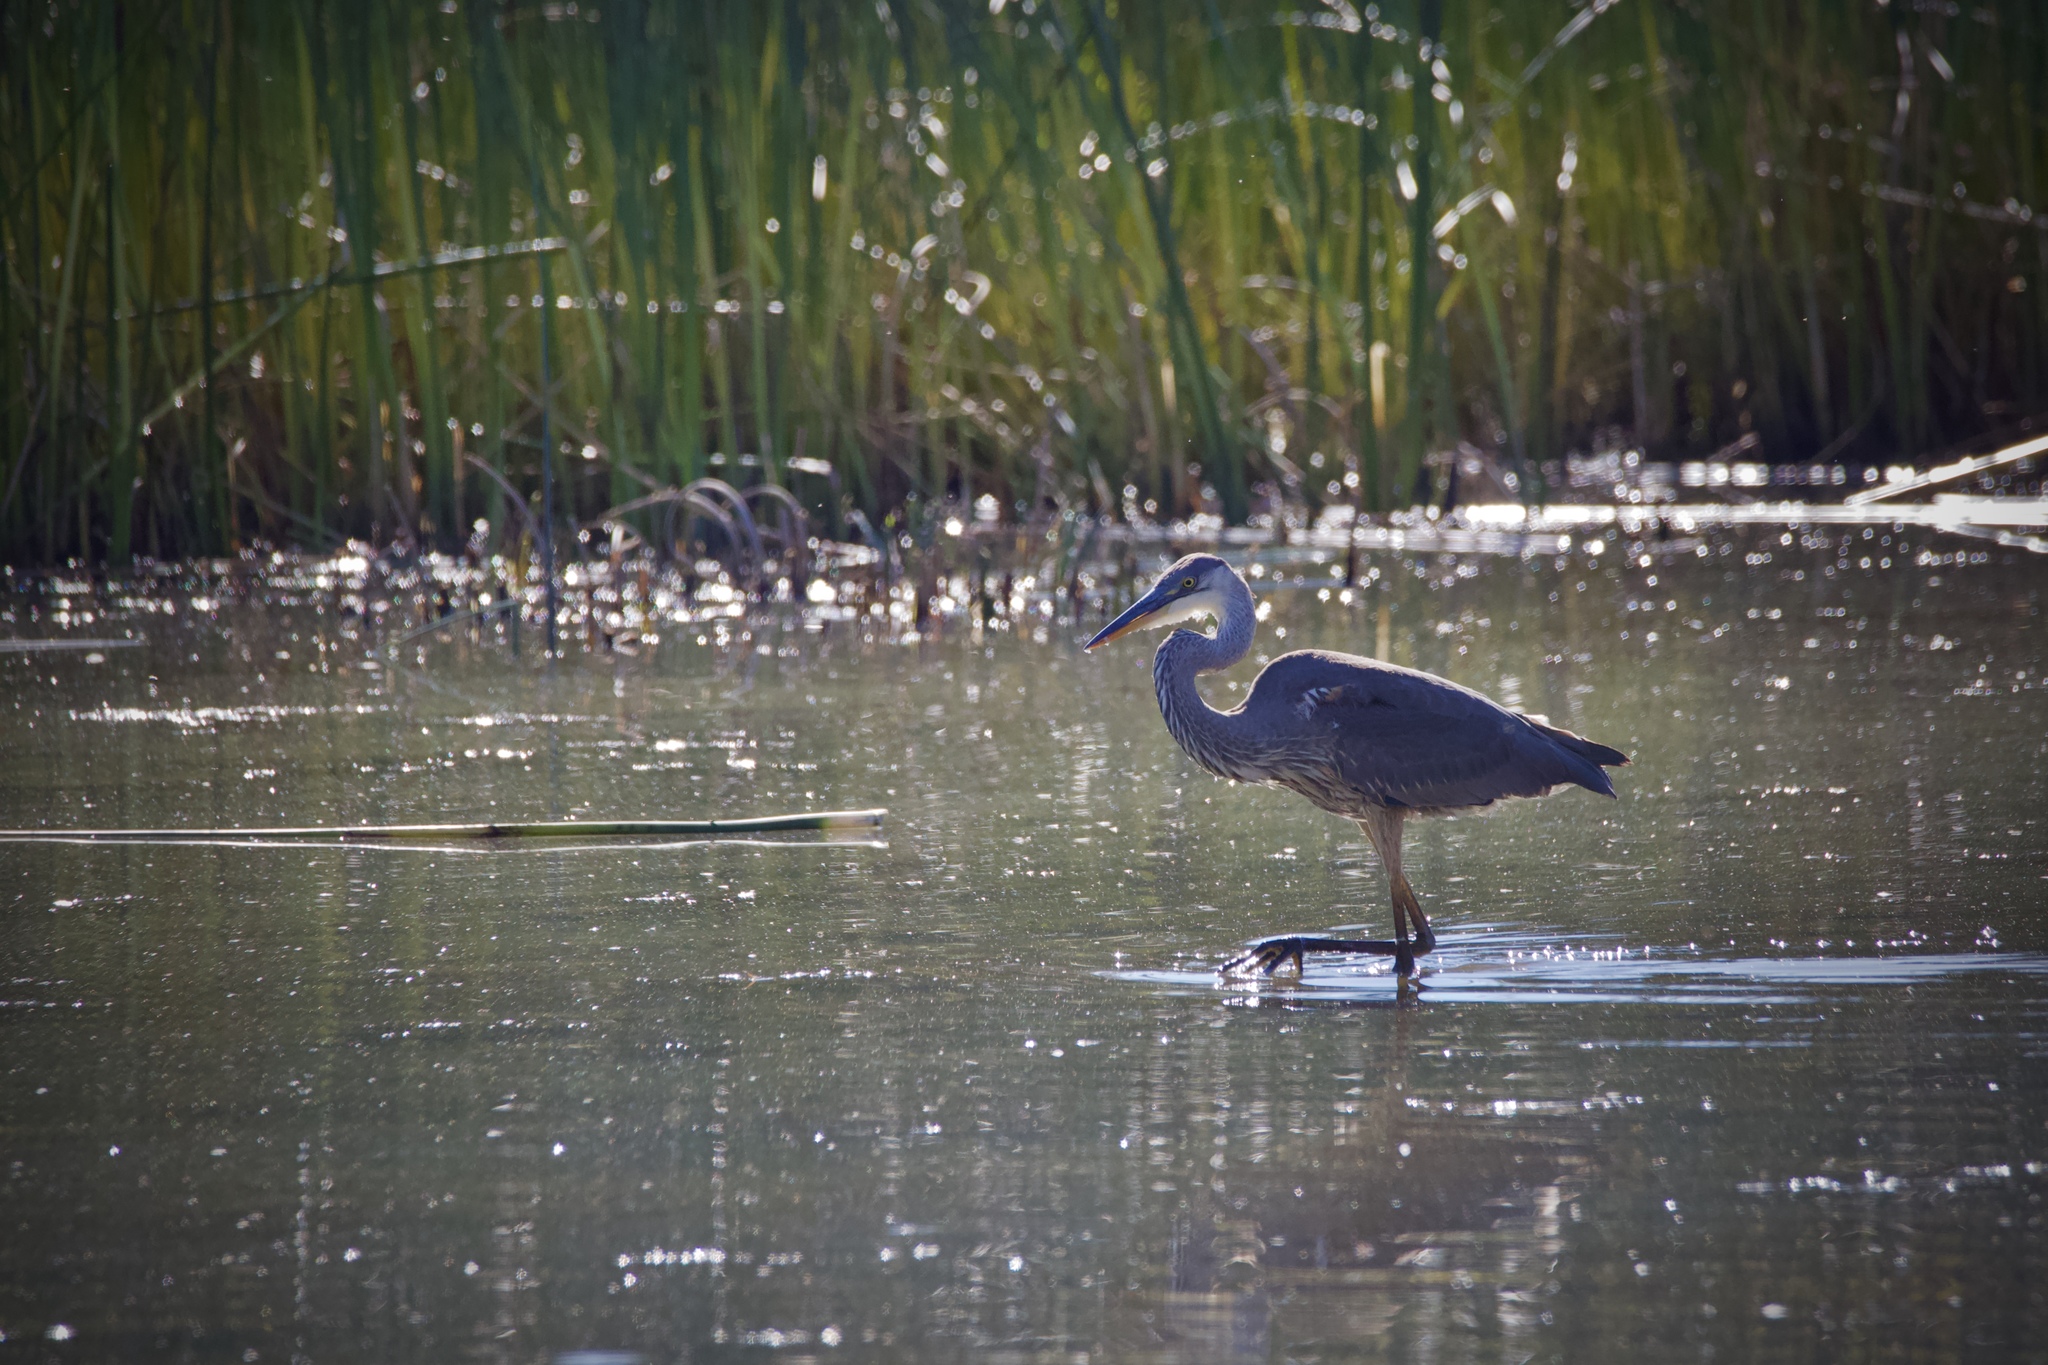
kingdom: Animalia
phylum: Chordata
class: Aves
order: Pelecaniformes
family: Ardeidae
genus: Ardea
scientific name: Ardea herodias
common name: Great blue heron
